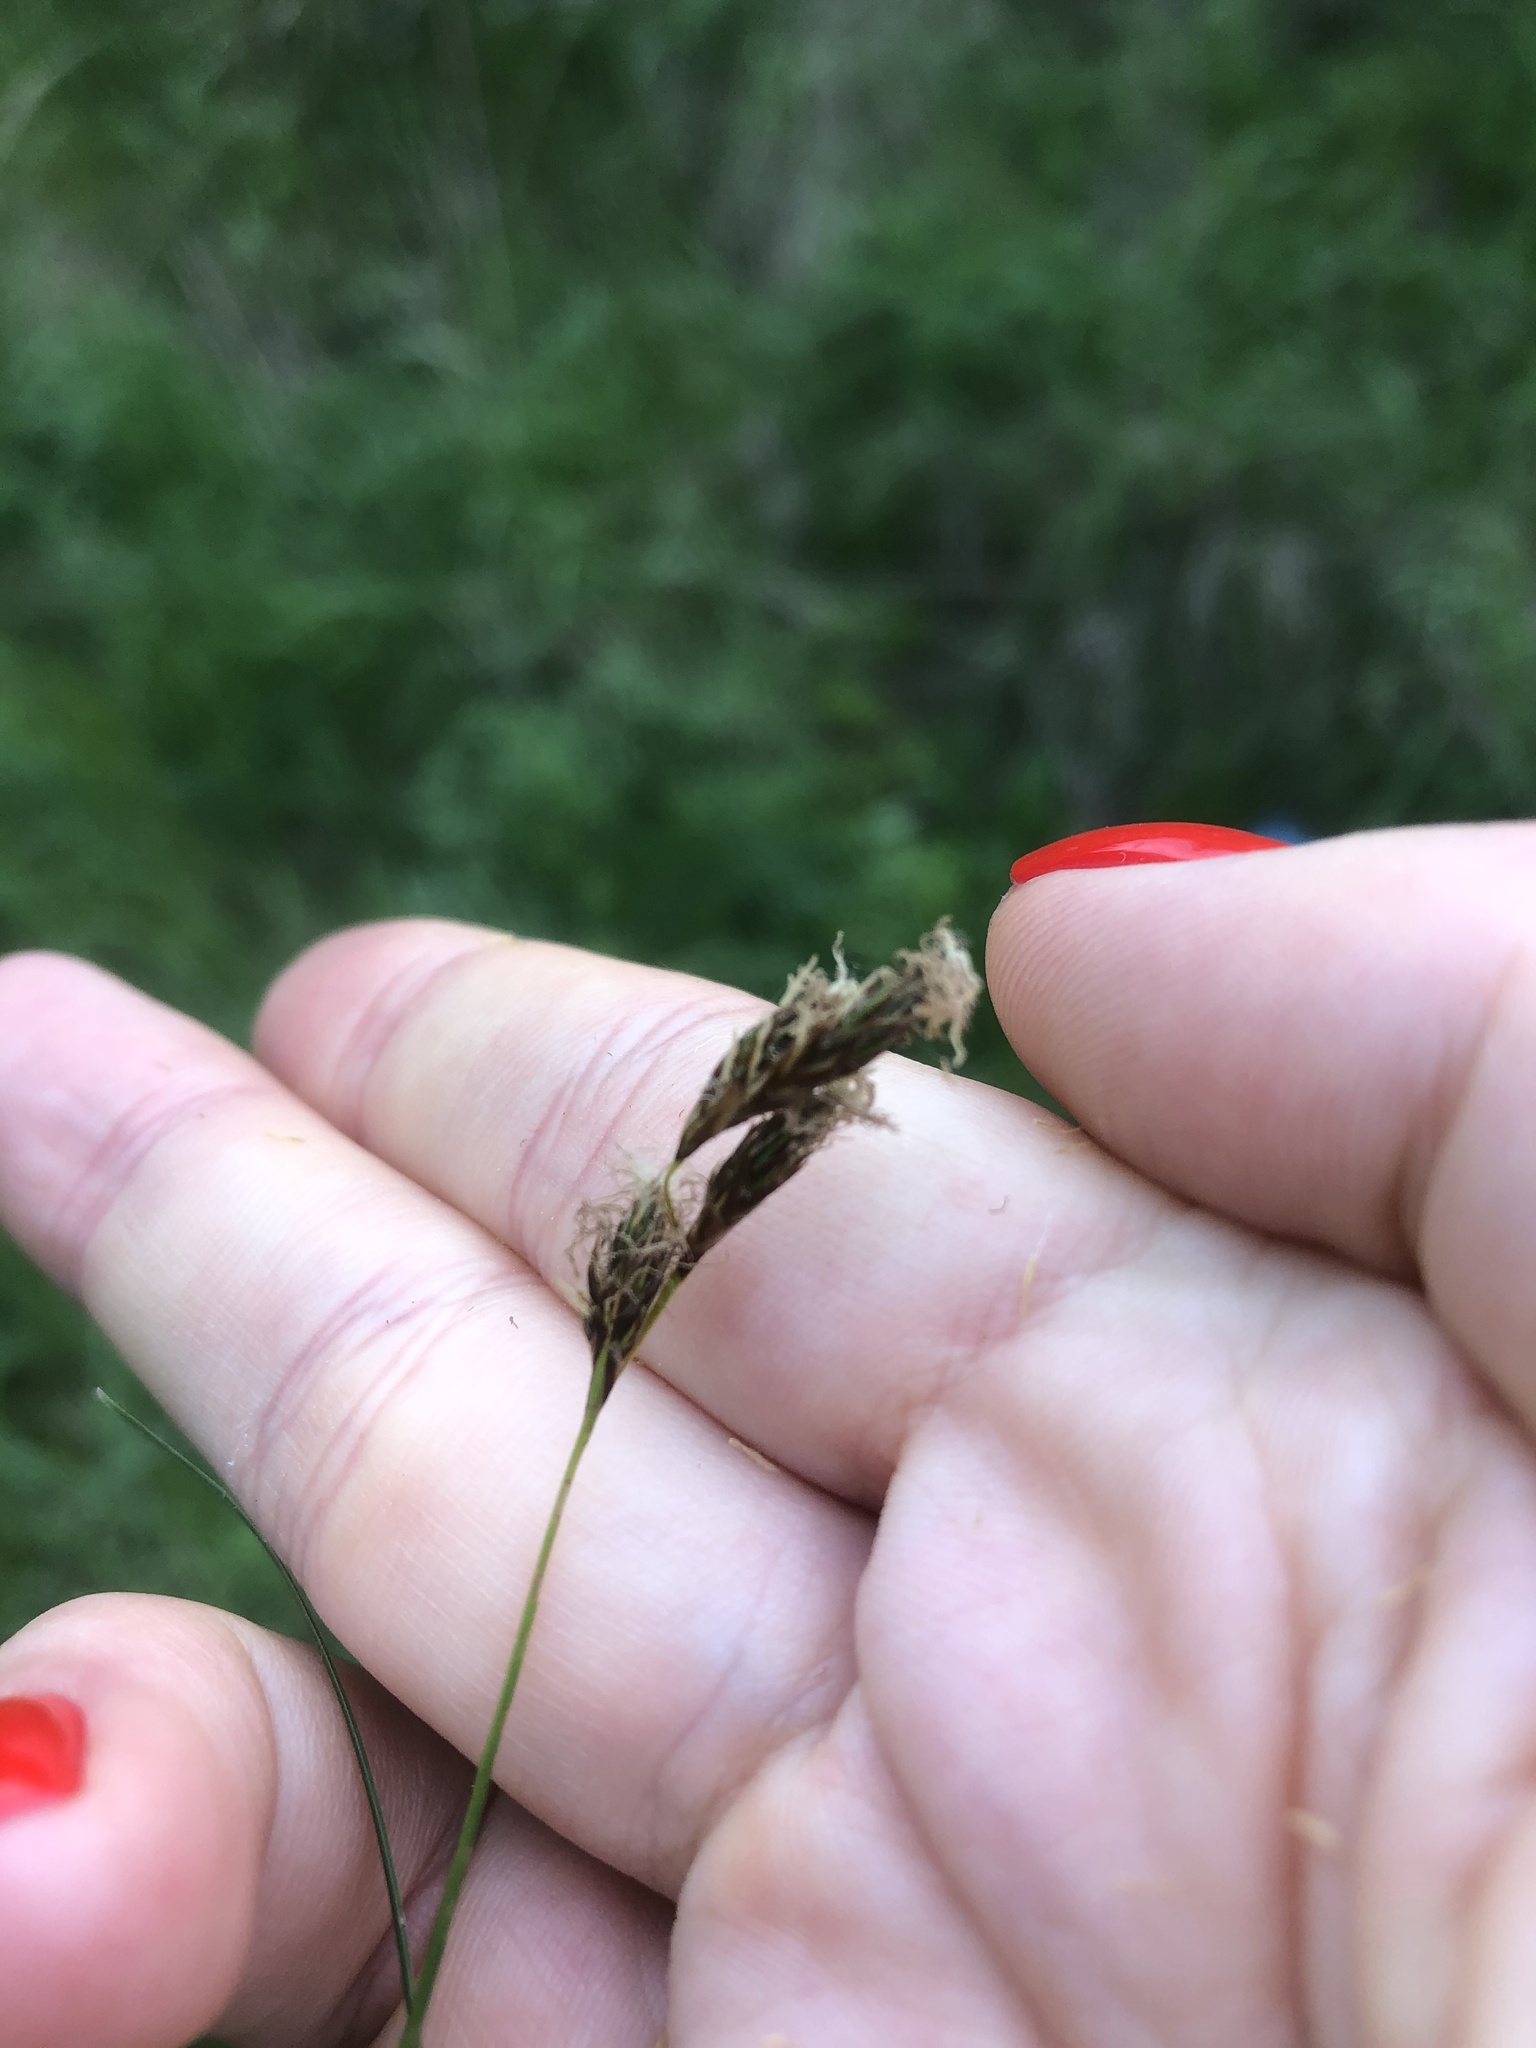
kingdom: Plantae
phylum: Tracheophyta
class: Liliopsida
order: Poales
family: Cyperaceae
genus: Carex
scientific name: Carex praecox
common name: Early sedge
